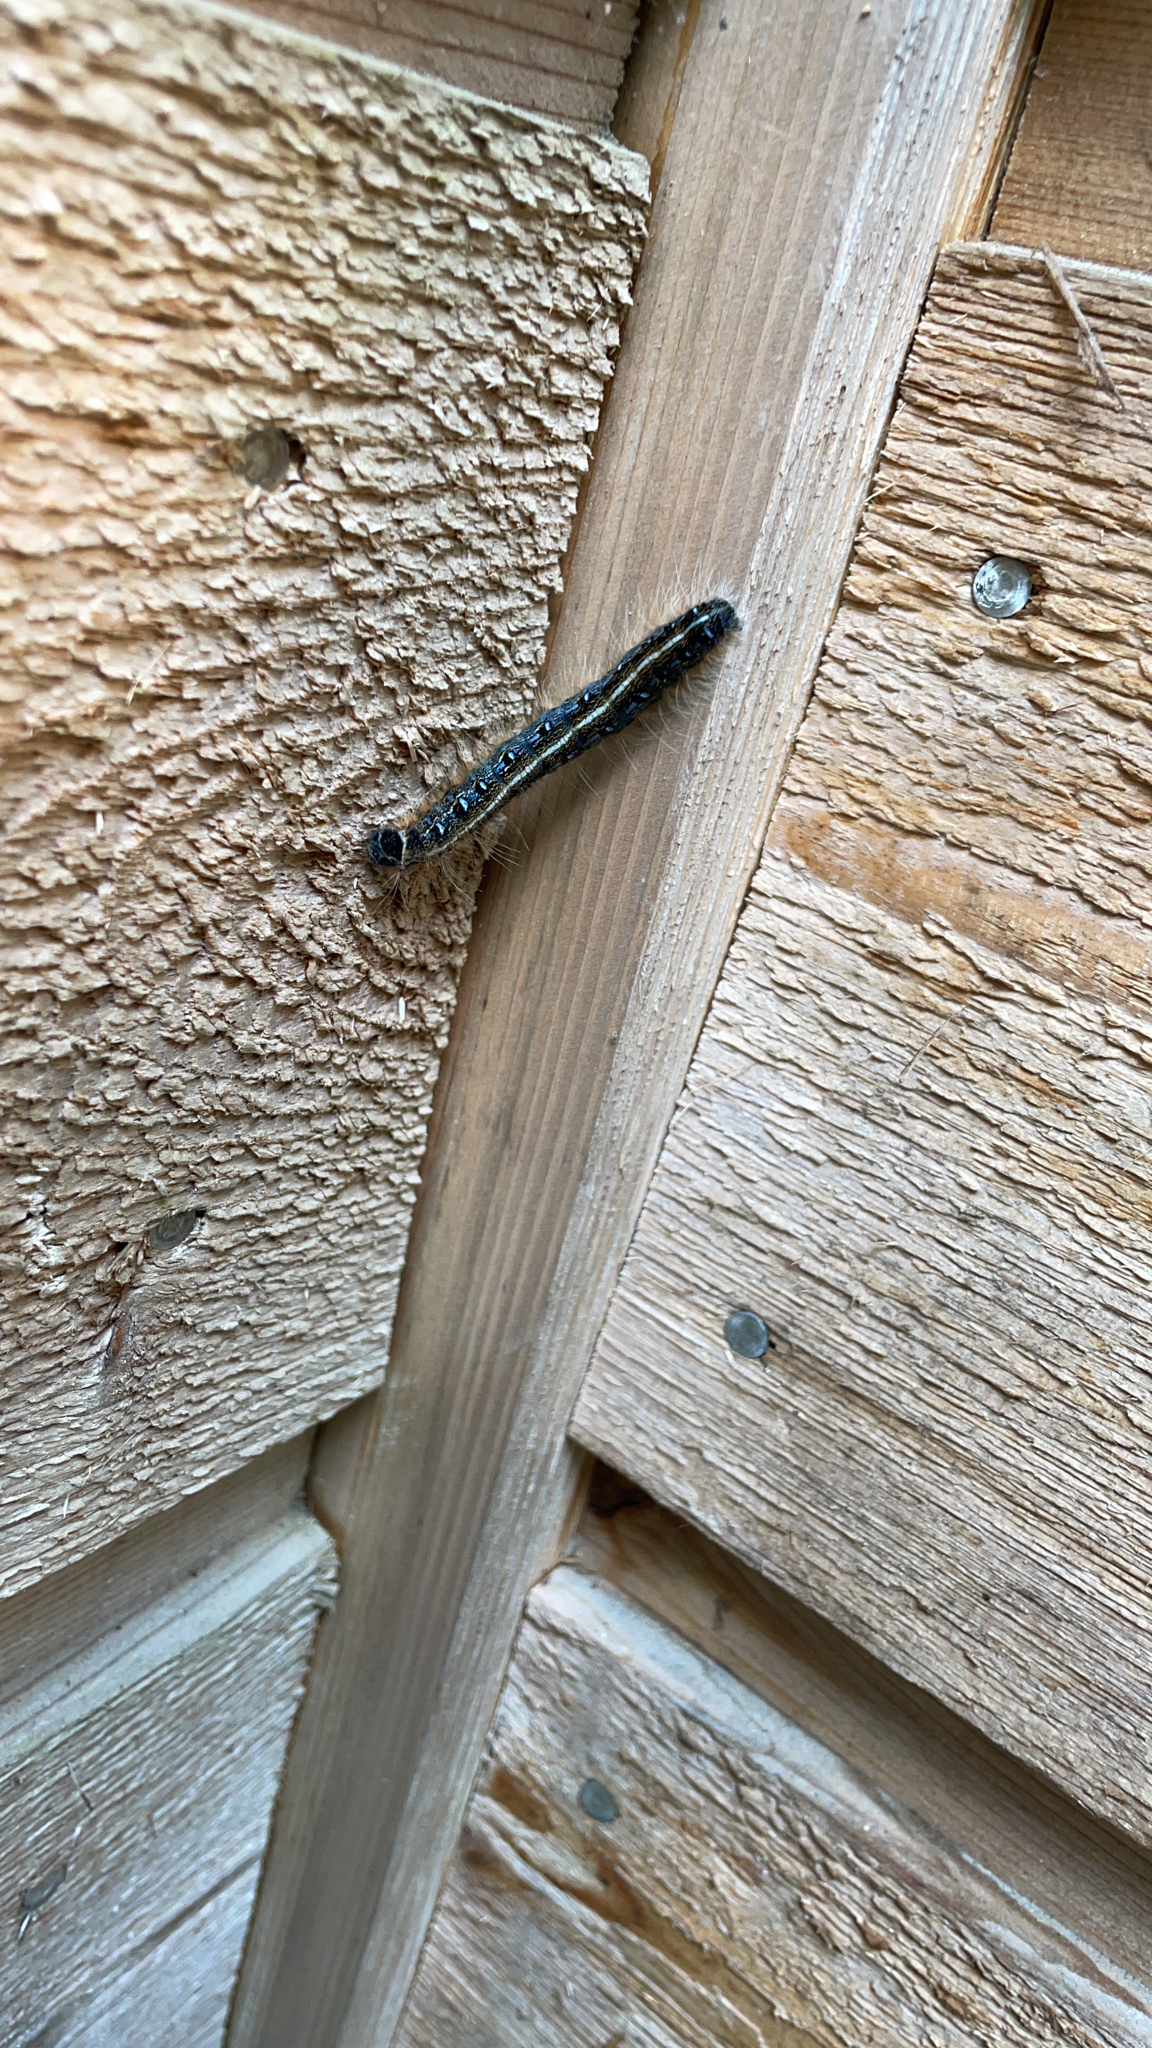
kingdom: Animalia
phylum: Arthropoda
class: Insecta
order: Lepidoptera
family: Lasiocampidae
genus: Malacosoma
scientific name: Malacosoma americana
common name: Eastern tent caterpillar moth
